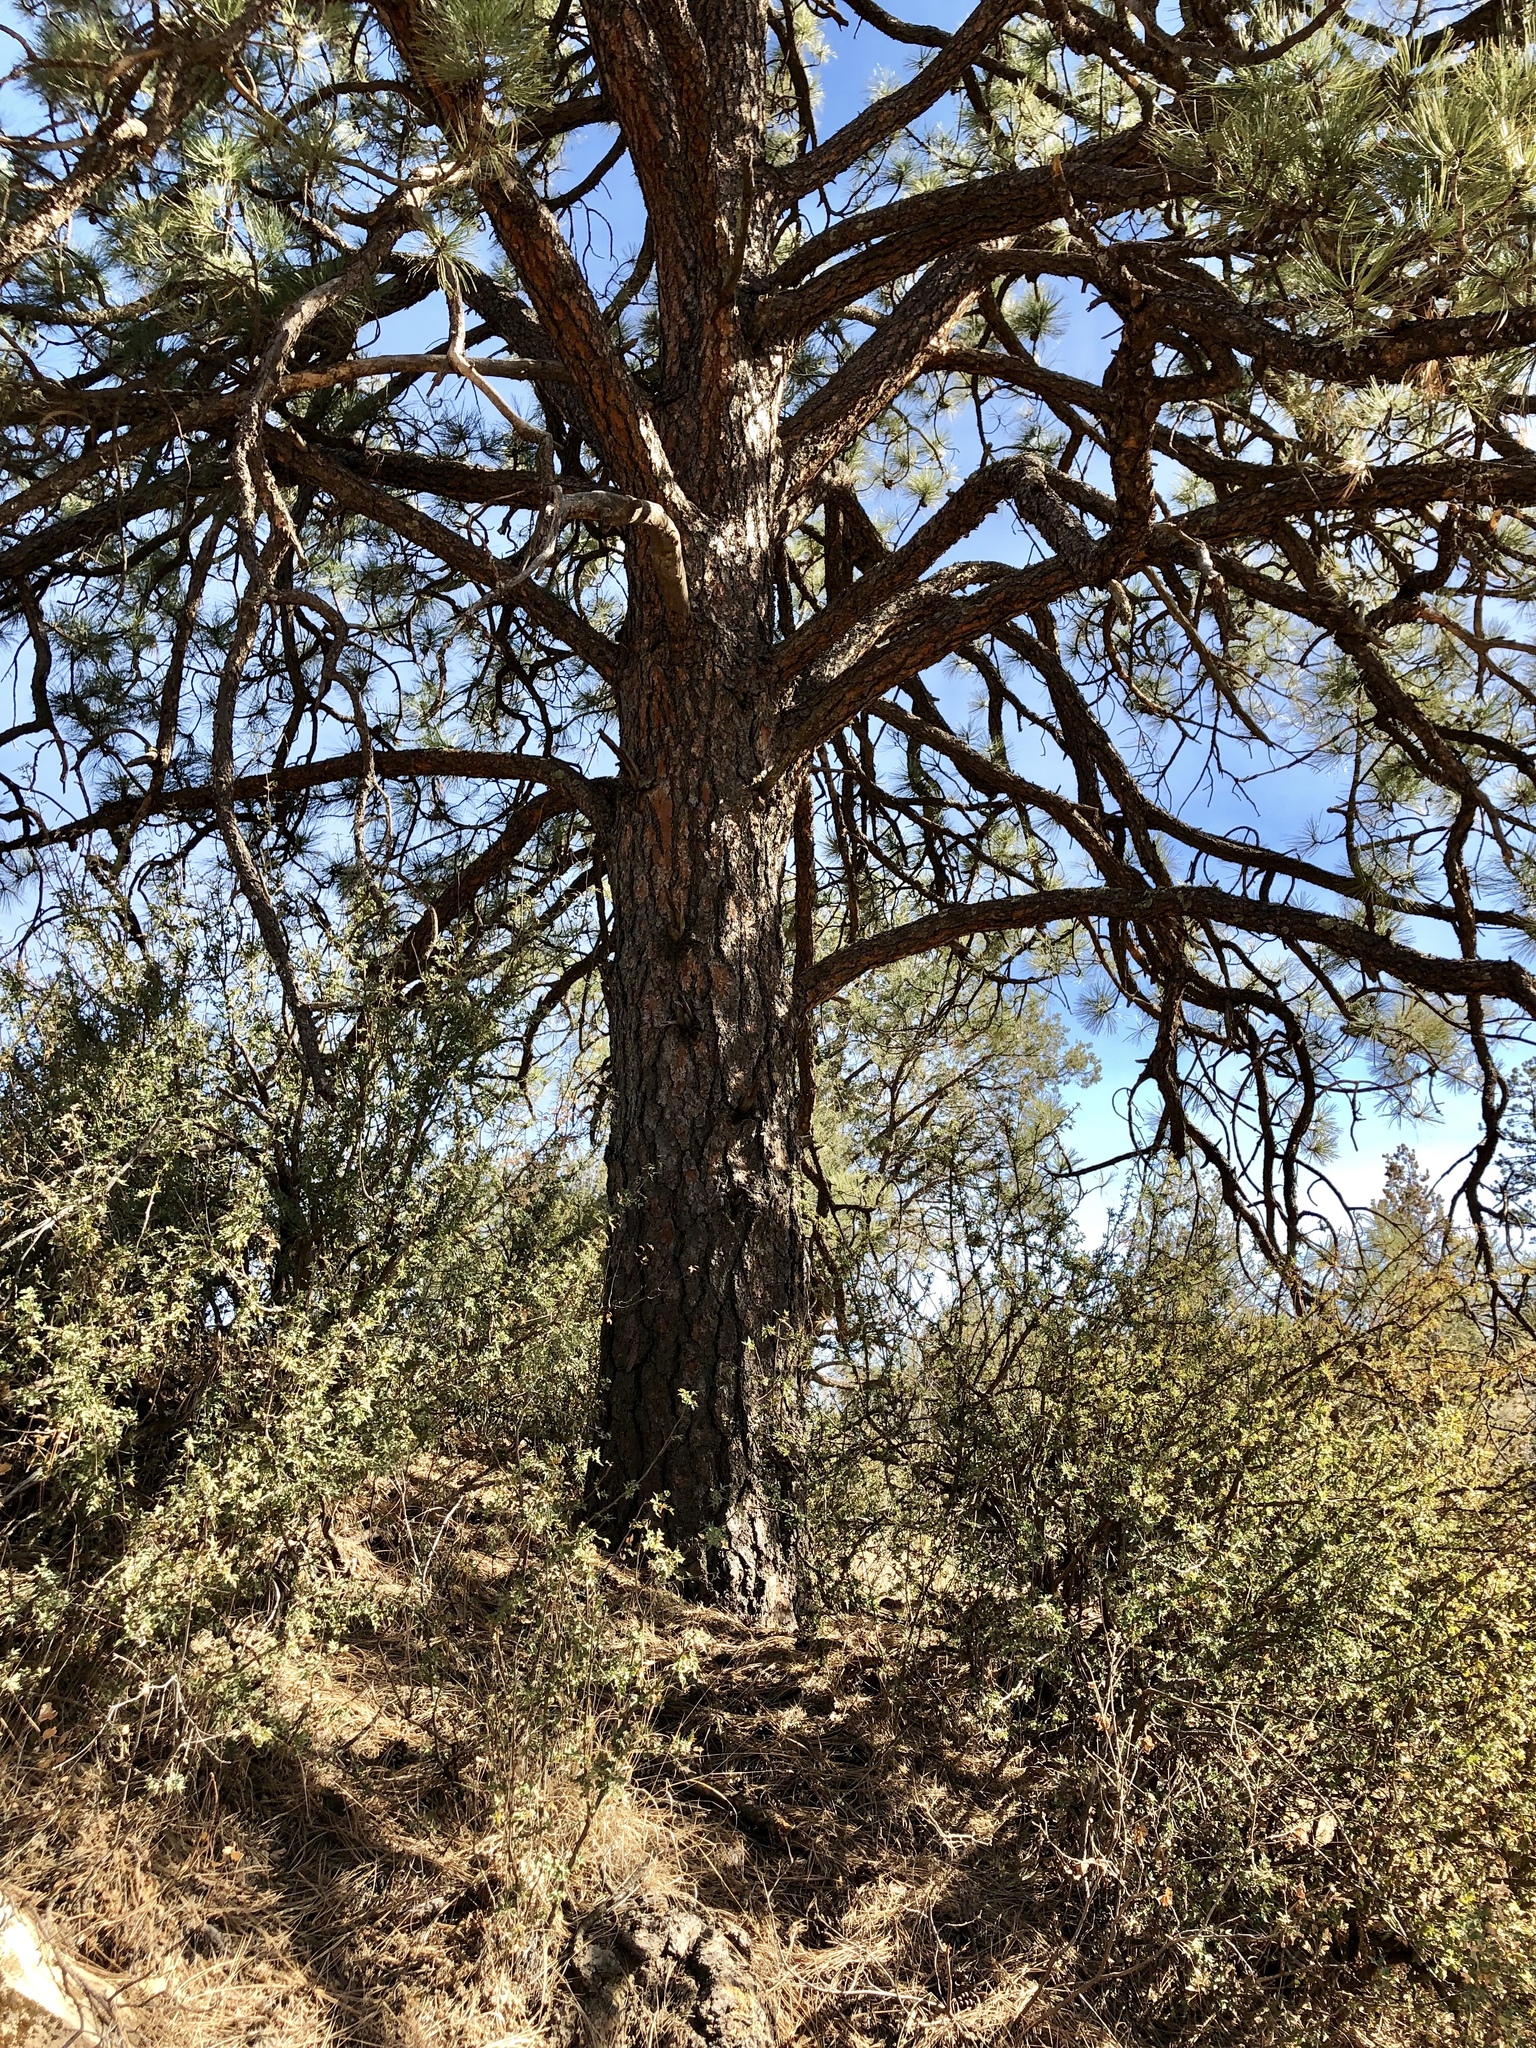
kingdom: Plantae
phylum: Tracheophyta
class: Pinopsida
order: Pinales
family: Pinaceae
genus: Pinus
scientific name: Pinus ponderosa
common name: Western yellow-pine
